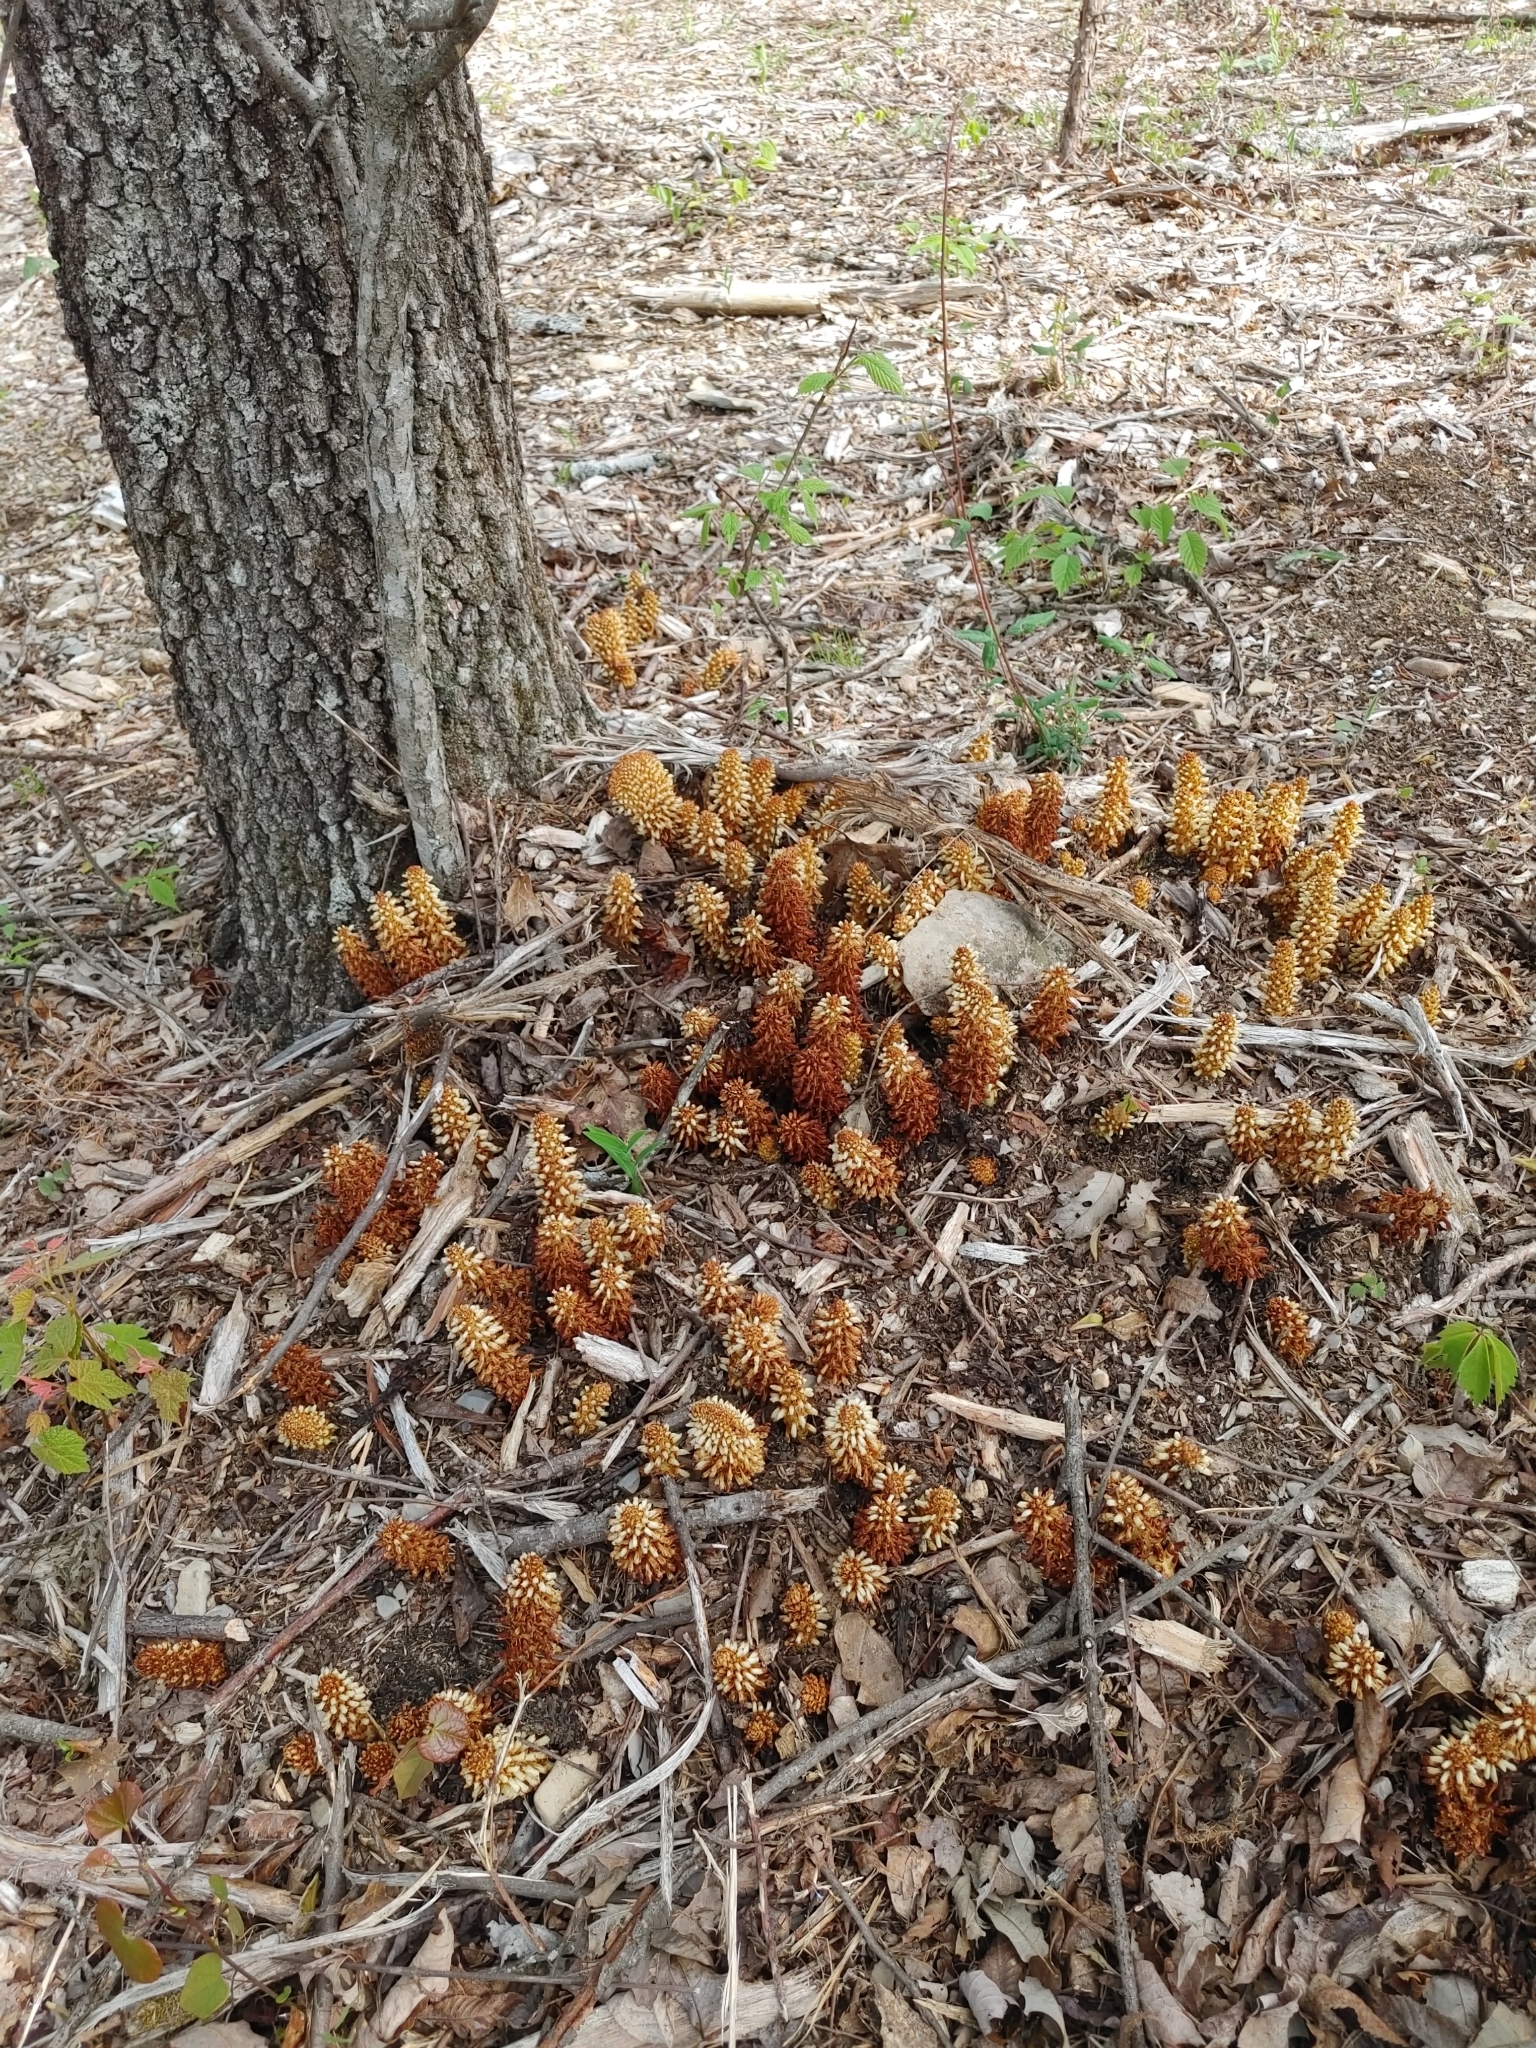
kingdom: Plantae
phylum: Tracheophyta
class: Magnoliopsida
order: Lamiales
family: Orobanchaceae
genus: Conopholis
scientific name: Conopholis americana
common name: American cancer-root
